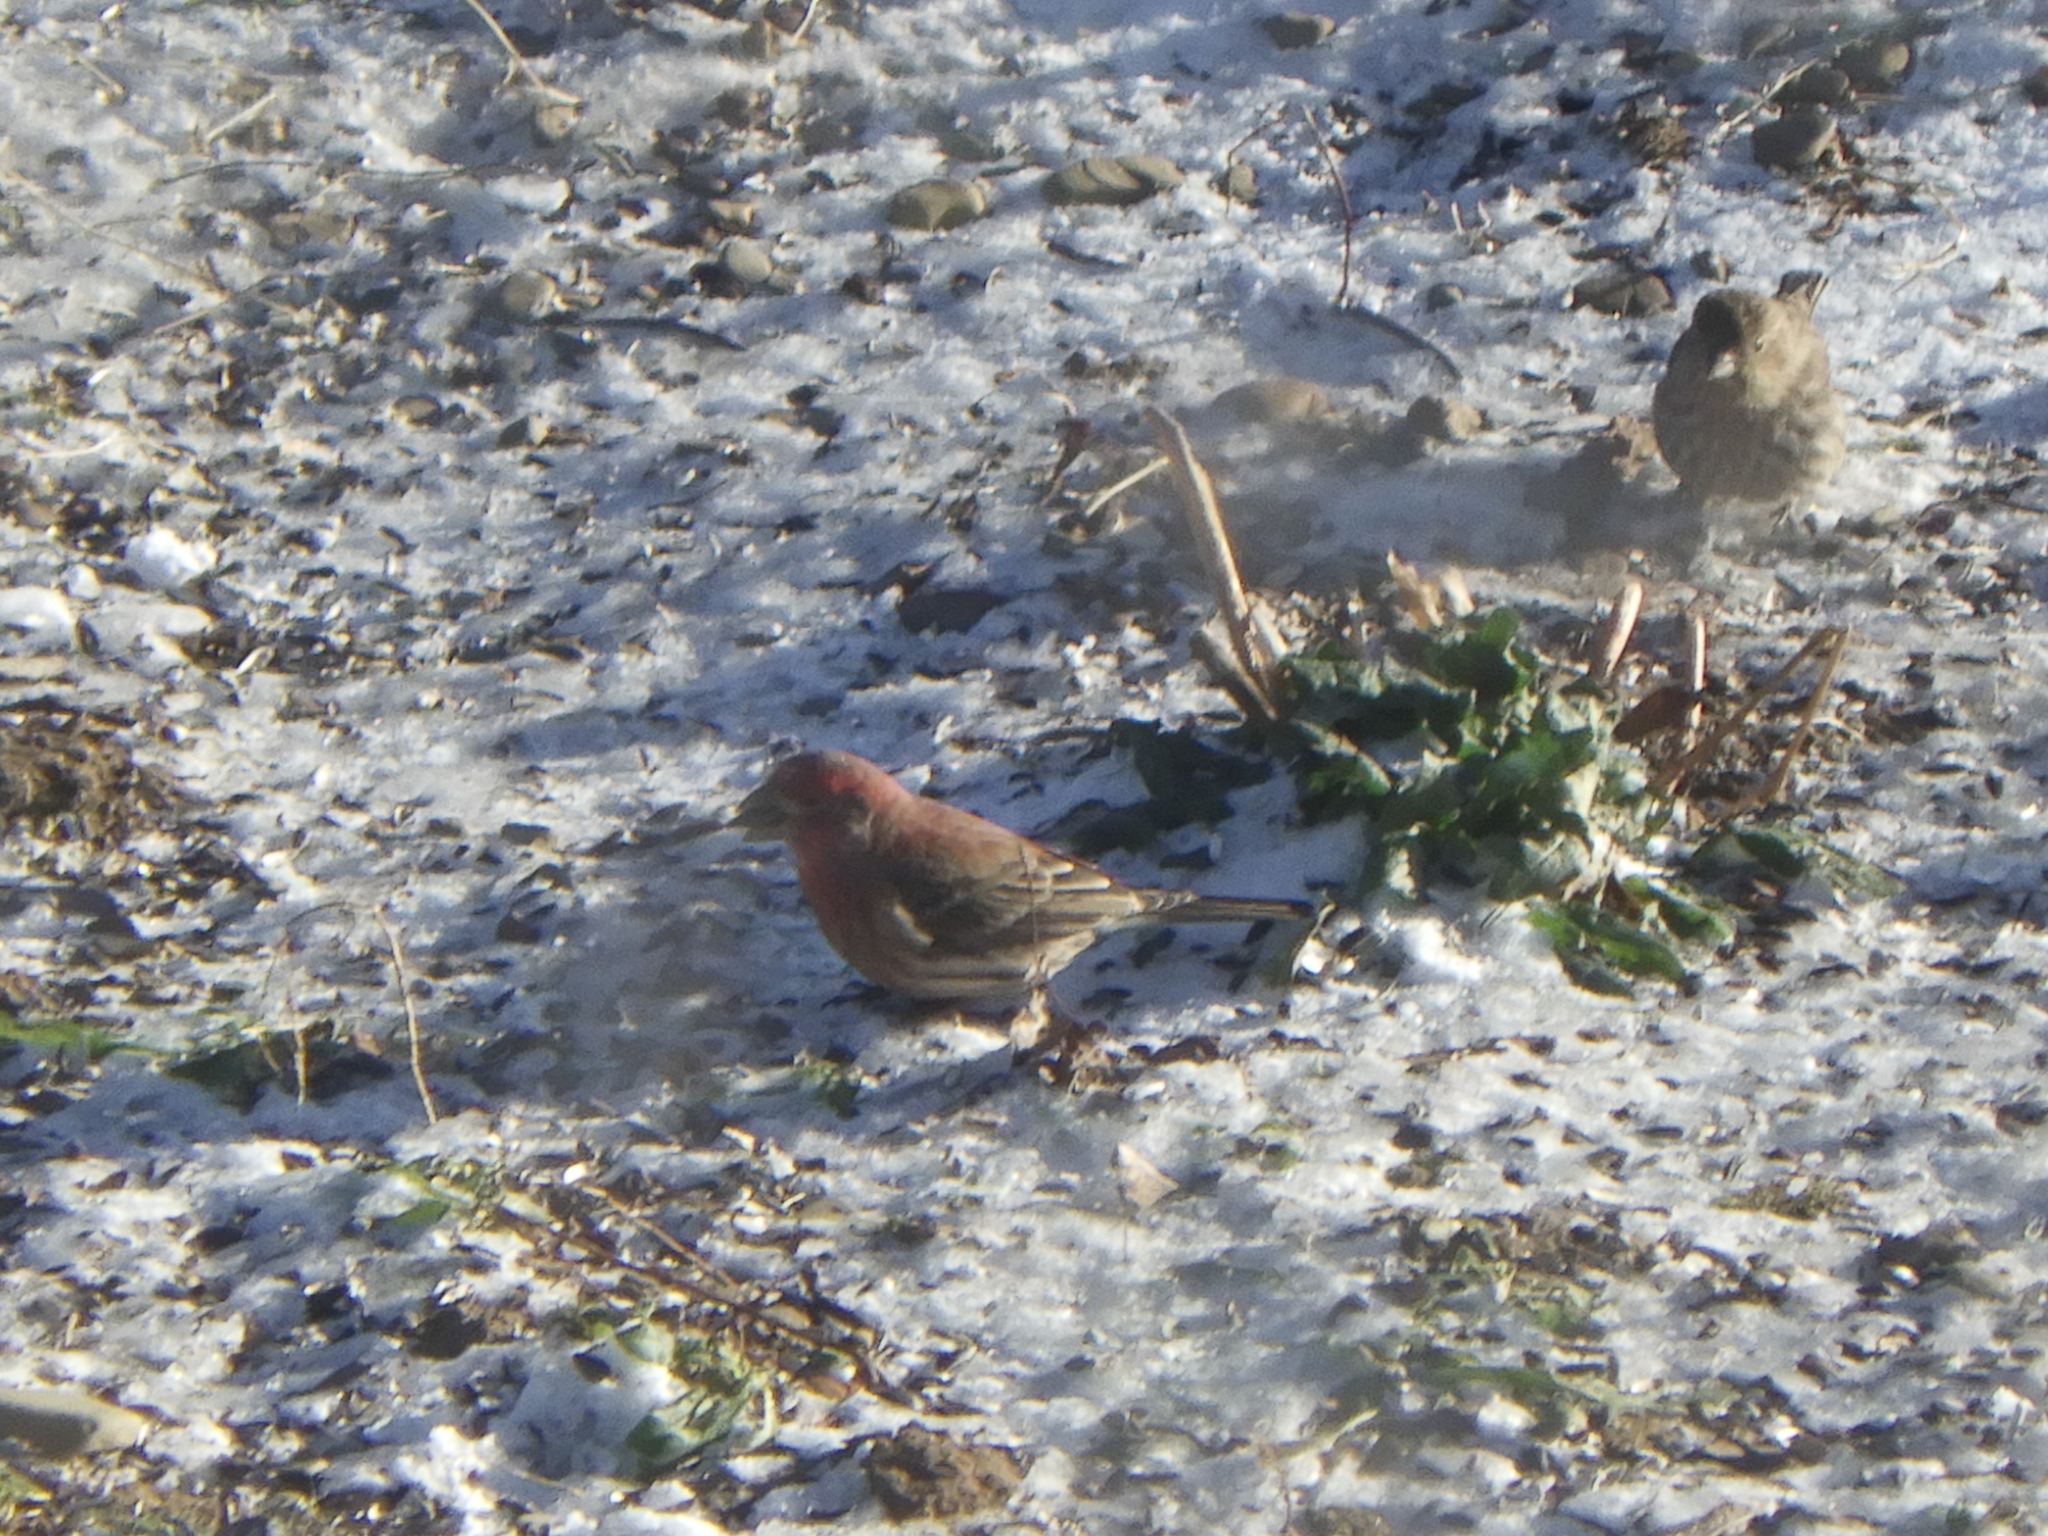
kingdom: Animalia
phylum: Chordata
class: Aves
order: Passeriformes
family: Fringillidae
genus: Haemorhous
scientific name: Haemorhous mexicanus
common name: House finch
